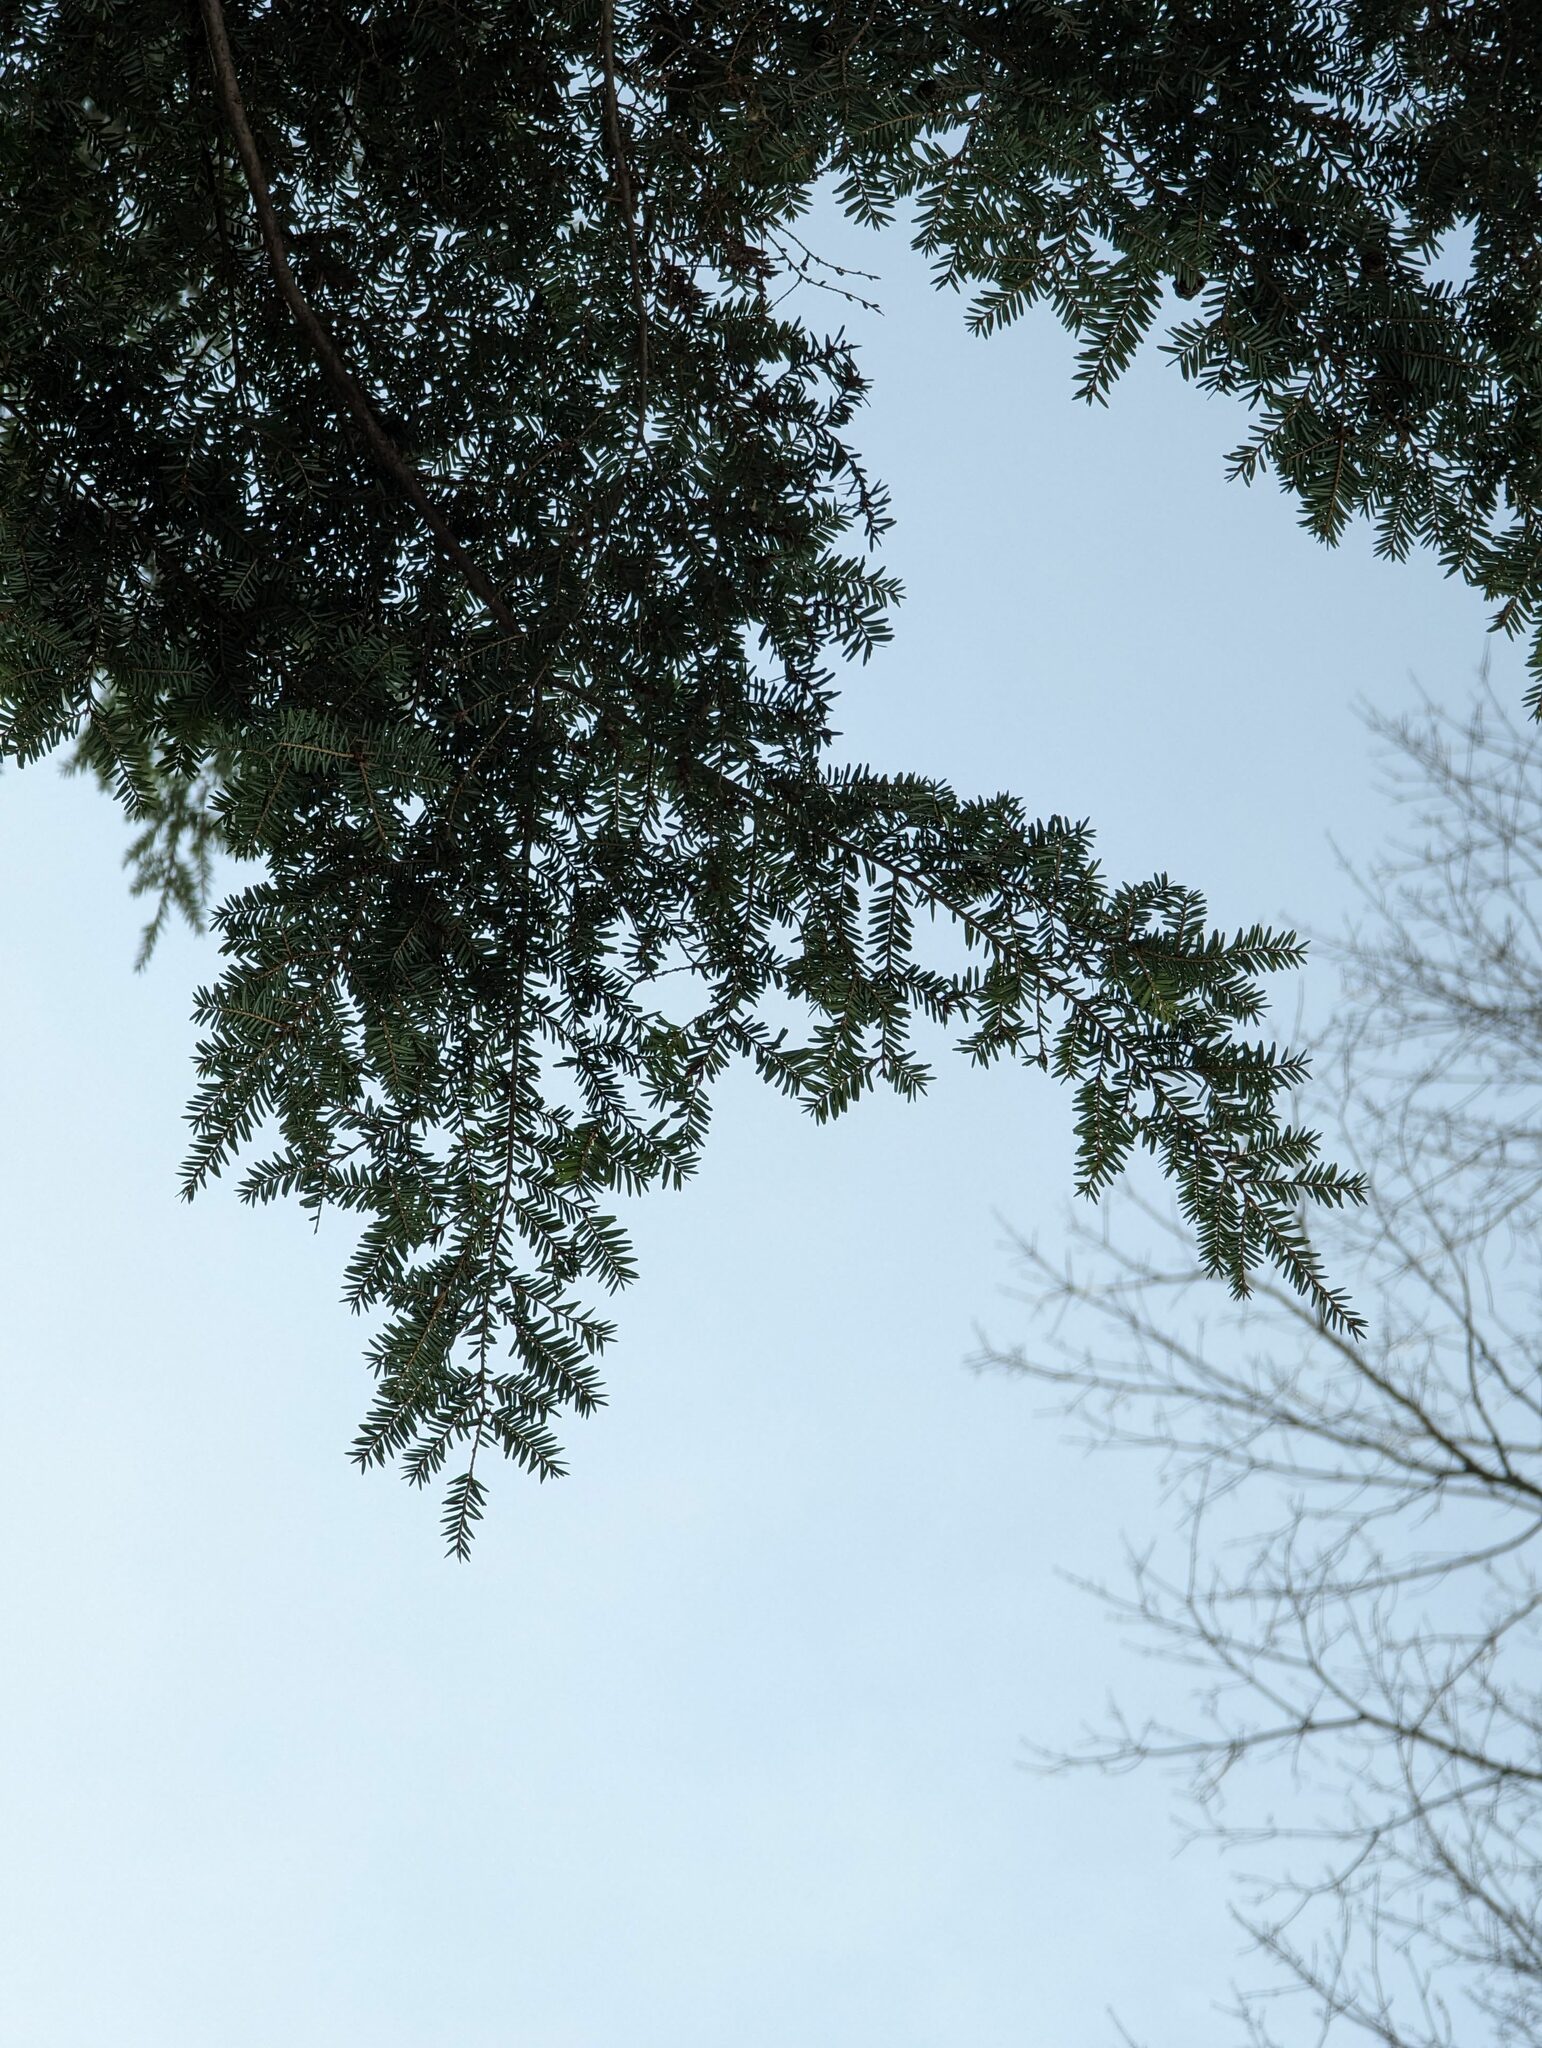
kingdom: Plantae
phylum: Tracheophyta
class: Pinopsida
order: Pinales
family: Pinaceae
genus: Tsuga
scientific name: Tsuga canadensis
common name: Eastern hemlock
